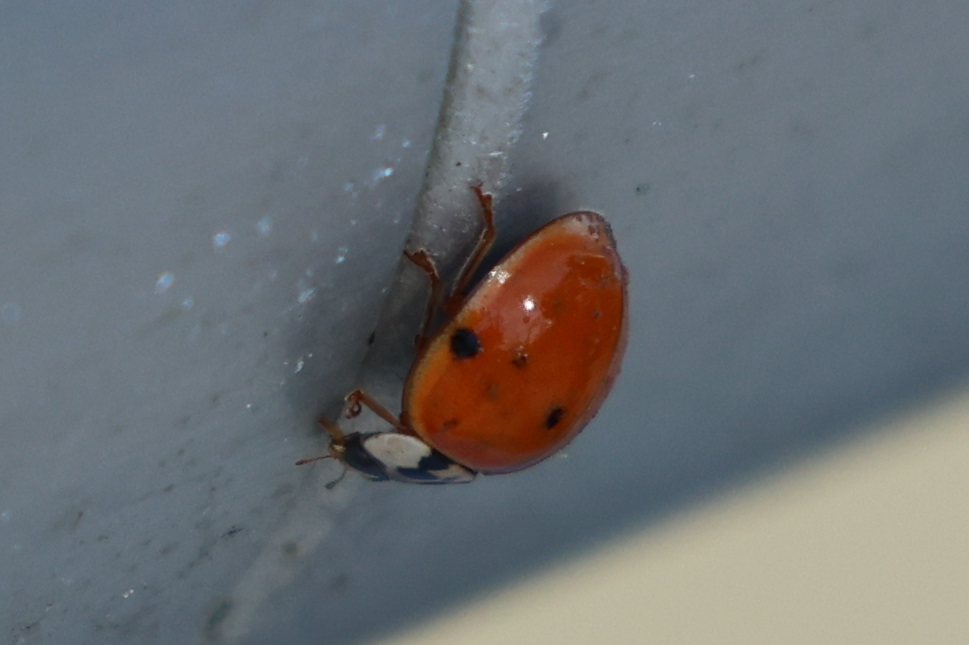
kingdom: Animalia
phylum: Arthropoda
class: Insecta
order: Coleoptera
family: Coccinellidae
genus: Harmonia
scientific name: Harmonia axyridis
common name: Harlequin ladybird
